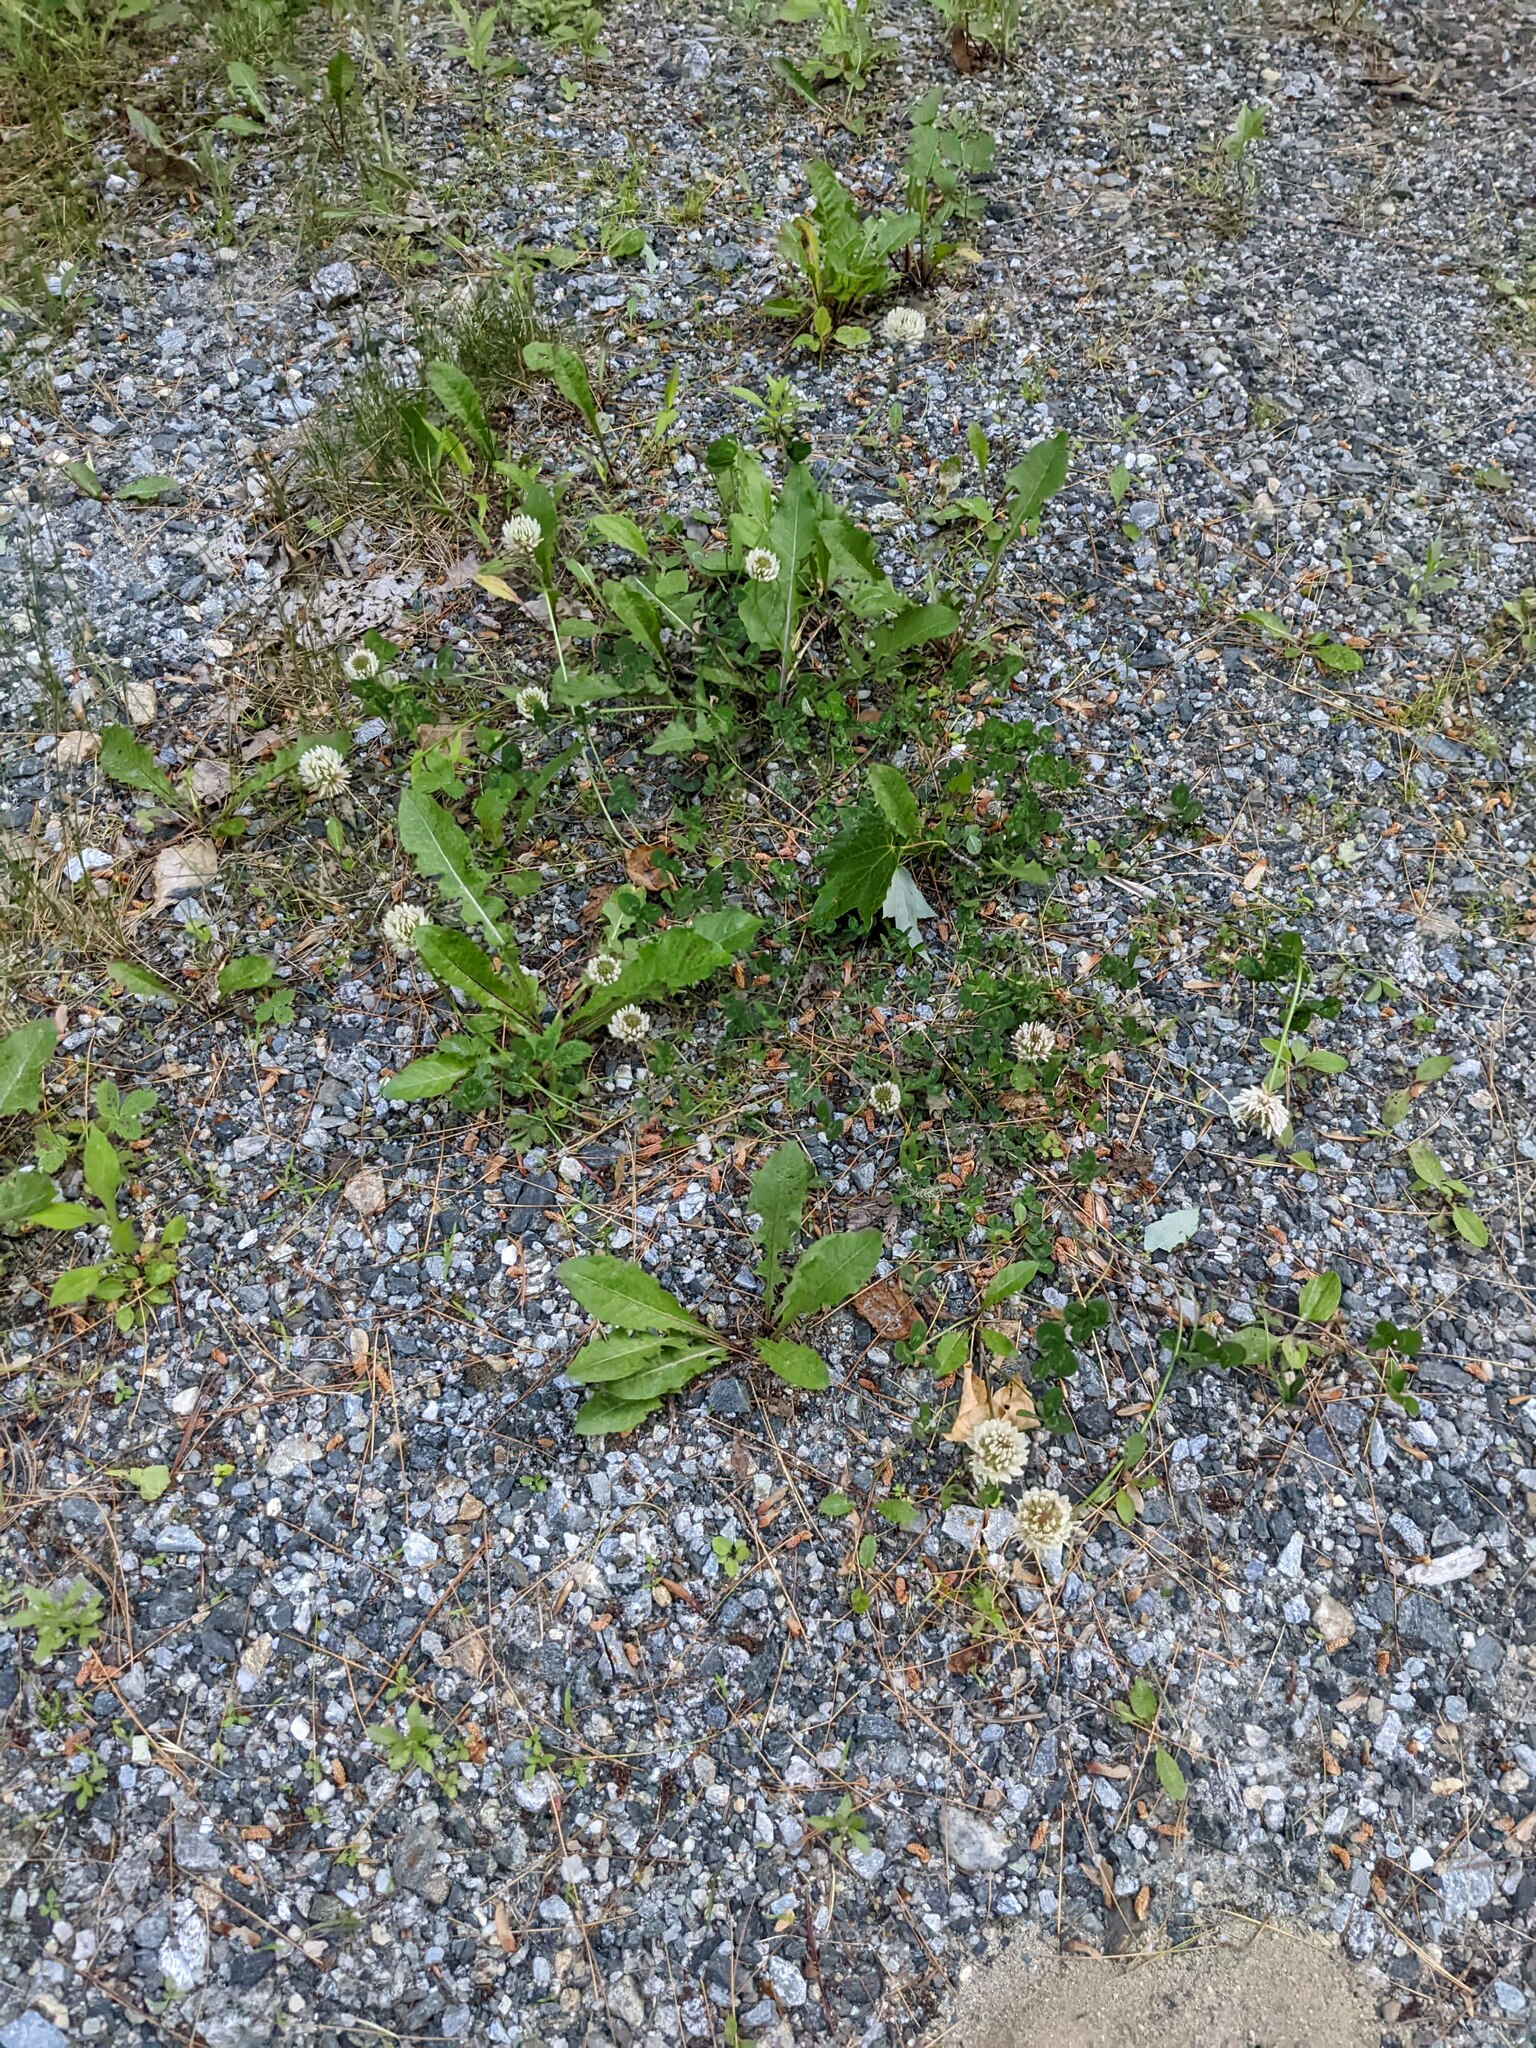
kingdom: Plantae
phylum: Tracheophyta
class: Magnoliopsida
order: Fabales
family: Fabaceae
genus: Trifolium
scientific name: Trifolium repens
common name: White clover
